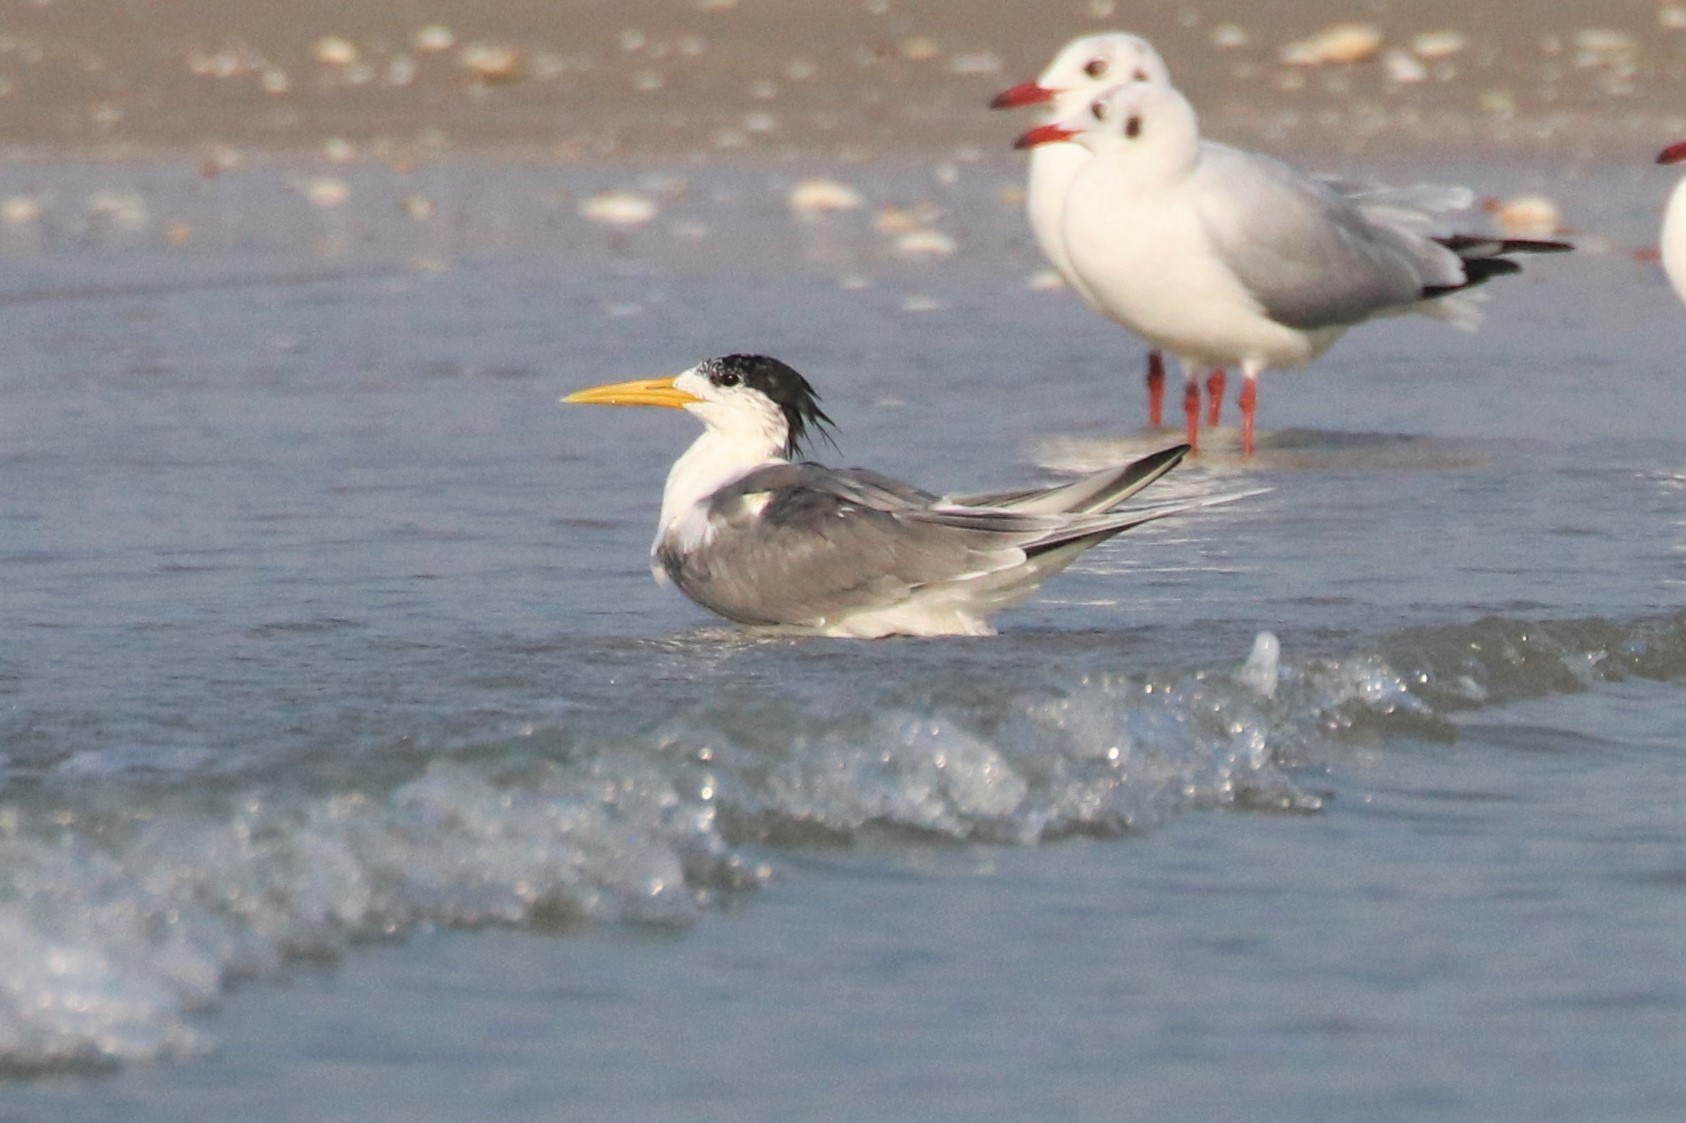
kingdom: Animalia
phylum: Chordata
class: Aves
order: Charadriiformes
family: Laridae
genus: Thalasseus
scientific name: Thalasseus bergii
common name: Greater crested tern
